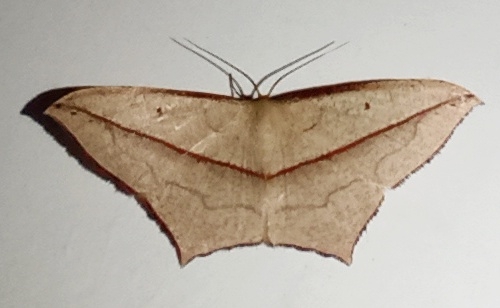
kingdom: Animalia
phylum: Arthropoda
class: Insecta
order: Lepidoptera
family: Geometridae
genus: Timandra
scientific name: Timandra convectaria
